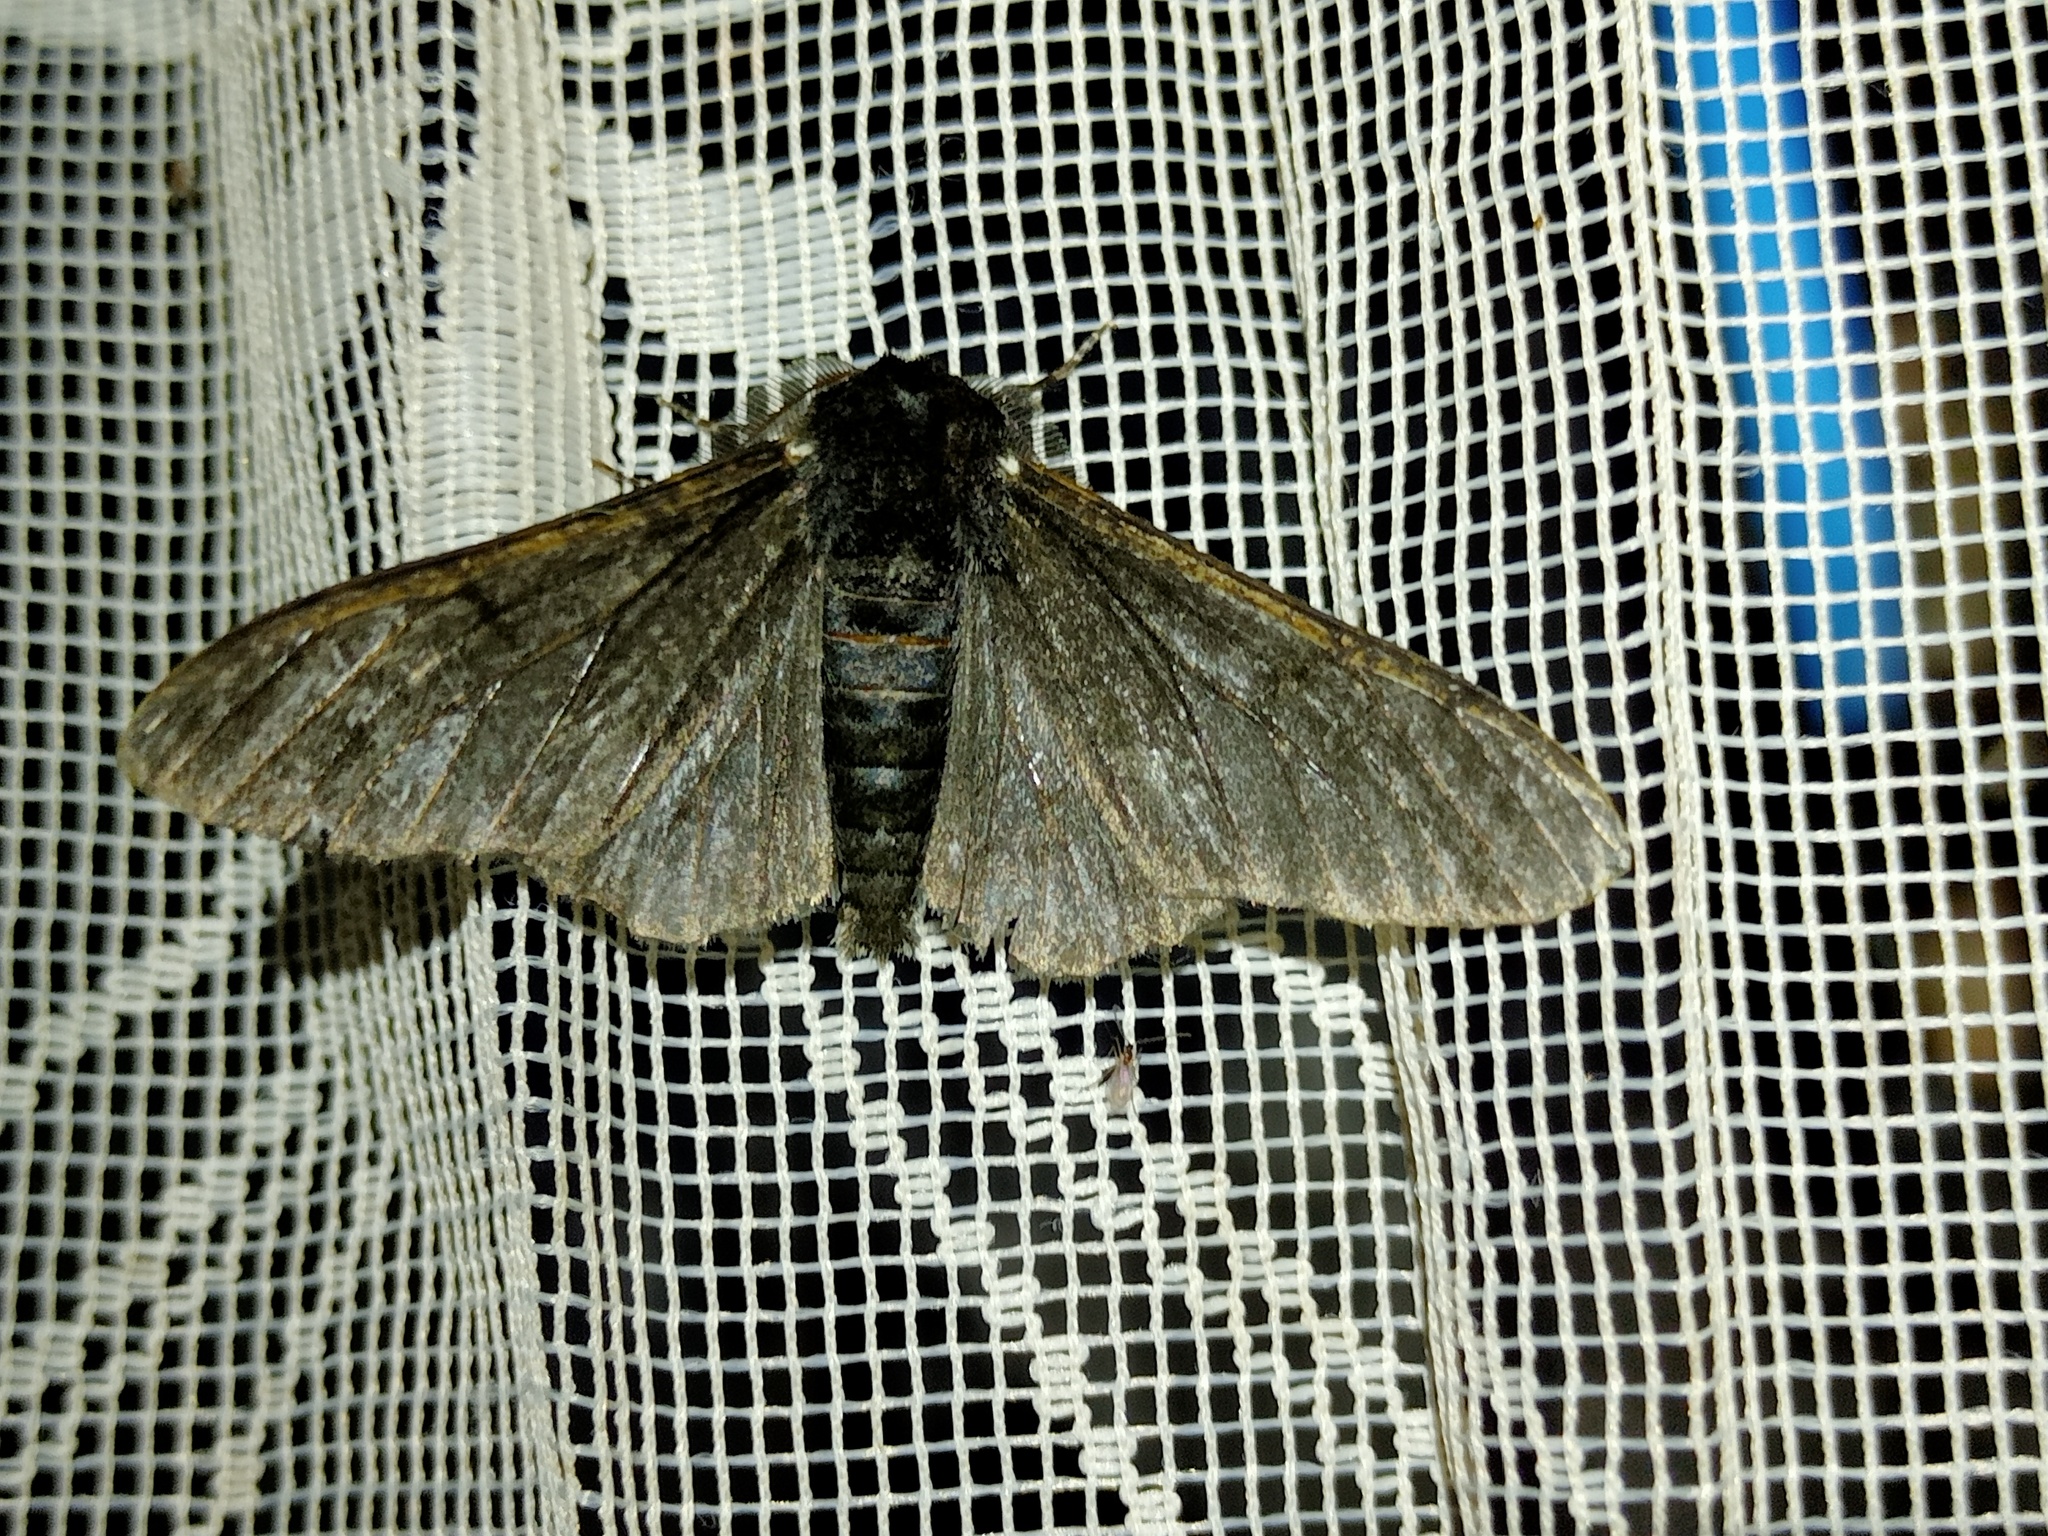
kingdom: Animalia
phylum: Arthropoda
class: Insecta
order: Lepidoptera
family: Geometridae
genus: Biston
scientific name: Biston betularia
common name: Peppered moth
